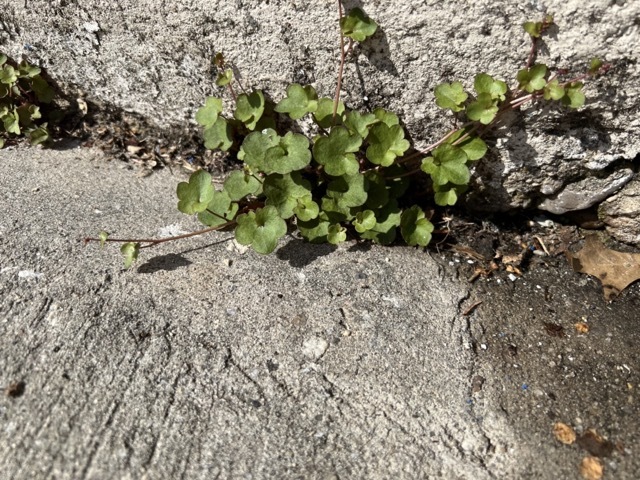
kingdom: Plantae
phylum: Tracheophyta
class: Magnoliopsida
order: Lamiales
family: Plantaginaceae
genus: Cymbalaria
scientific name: Cymbalaria muralis
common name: Ivy-leaved toadflax
